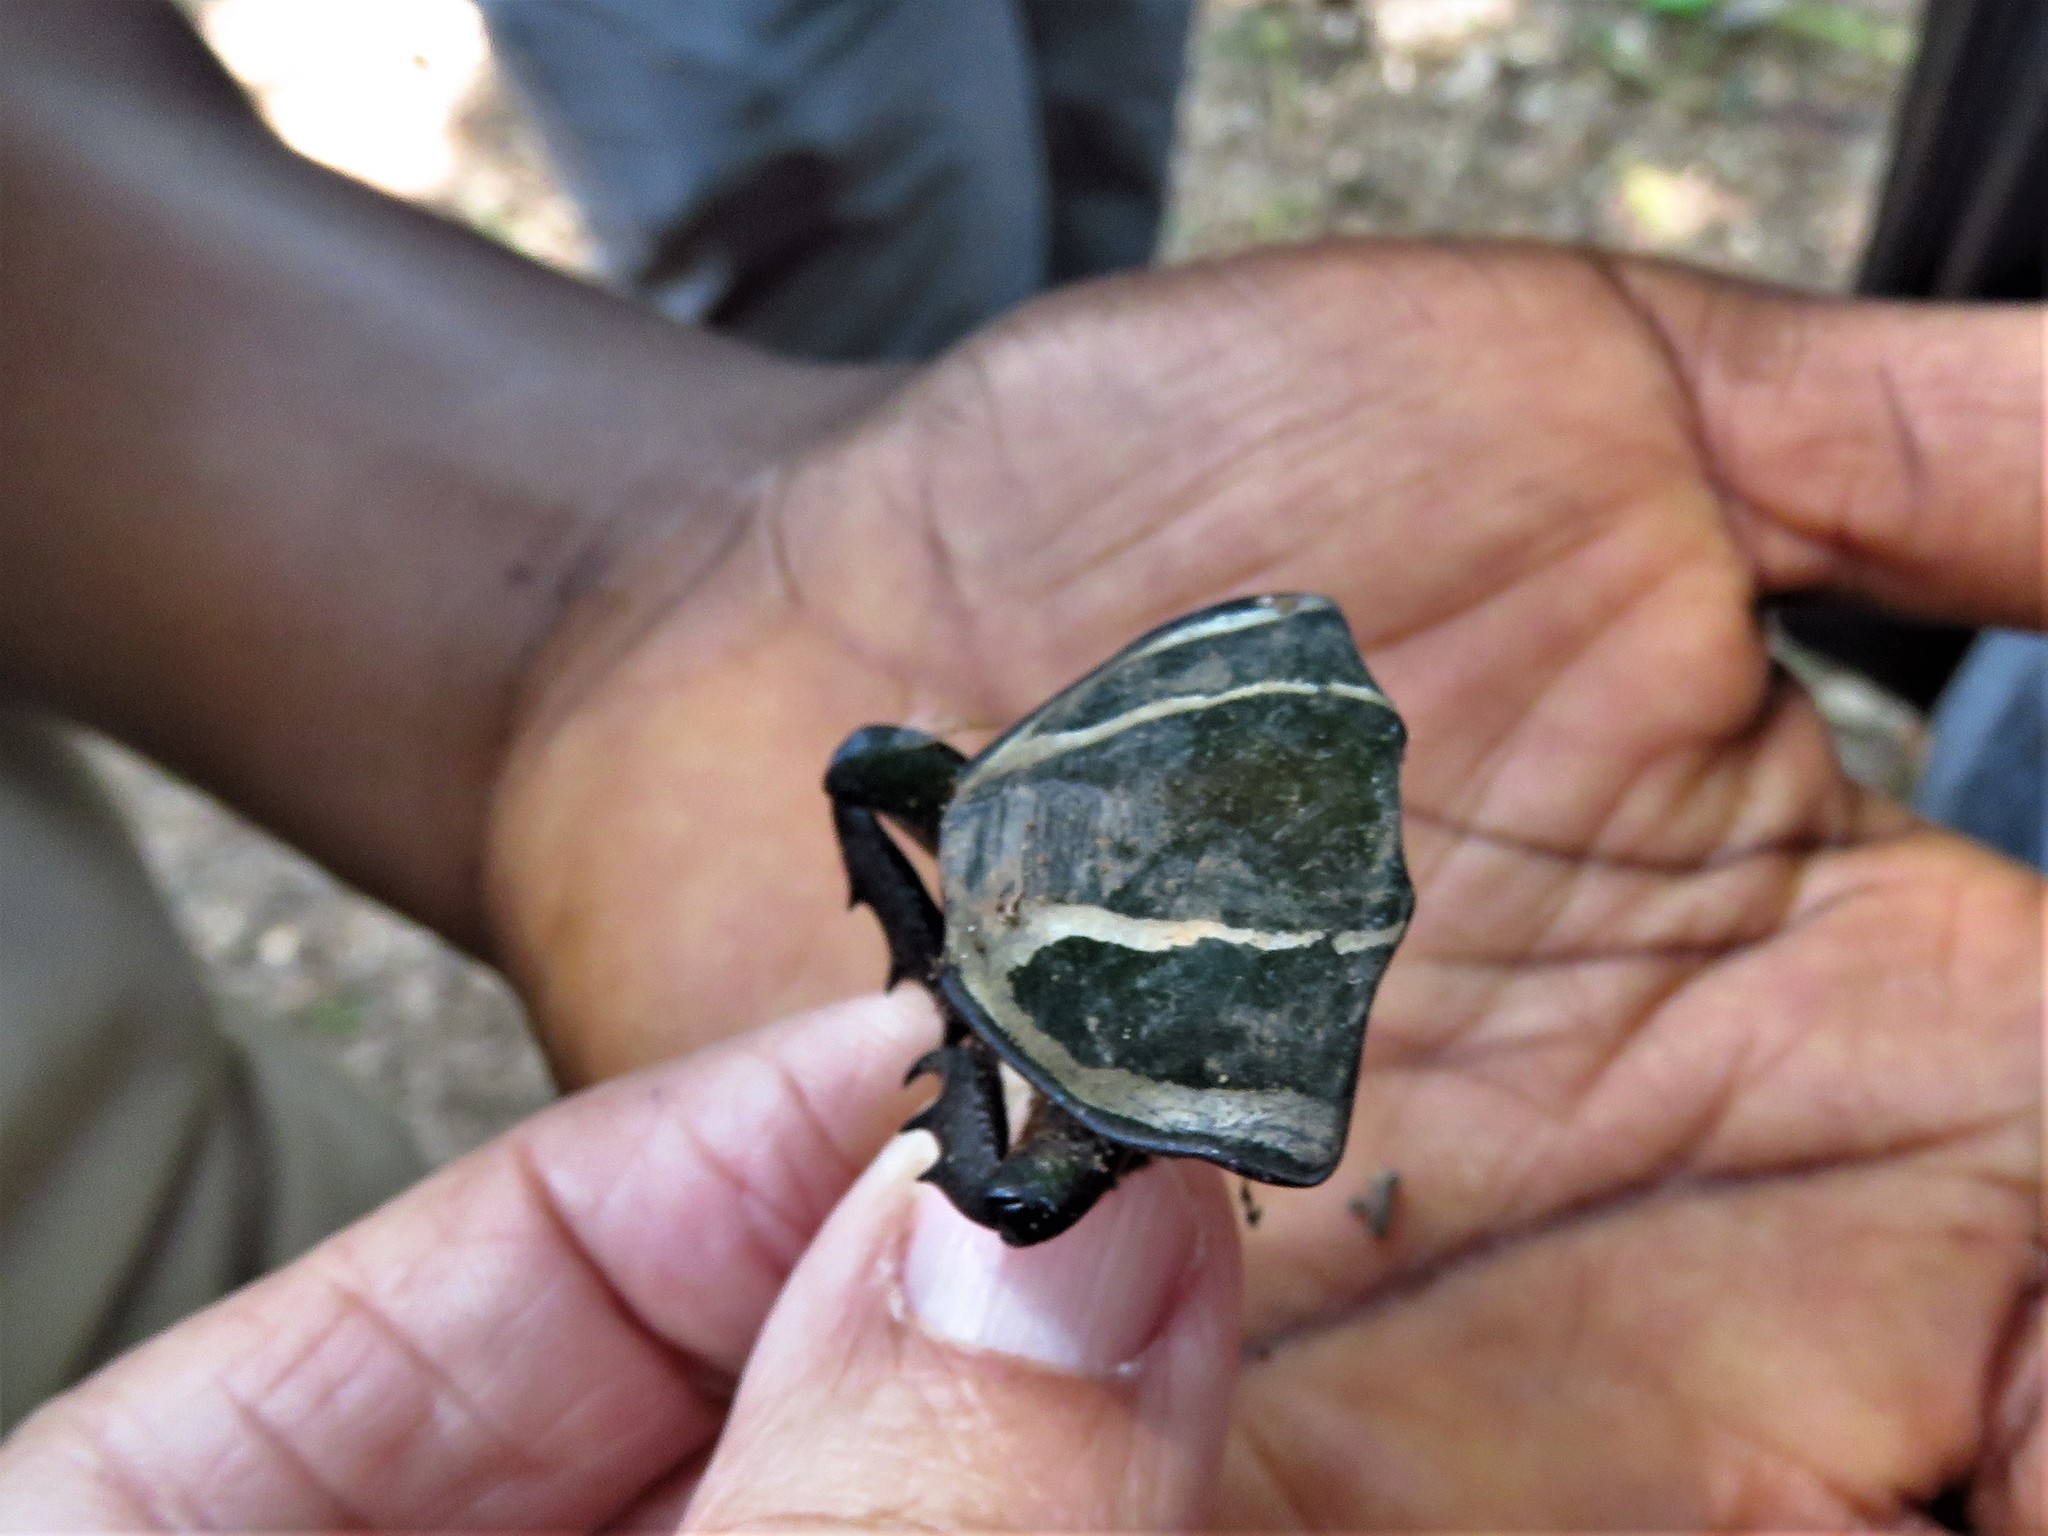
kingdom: Animalia
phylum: Arthropoda
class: Insecta
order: Coleoptera
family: Scarabaeidae
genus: Mecynorhina
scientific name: Mecynorhina torquata
